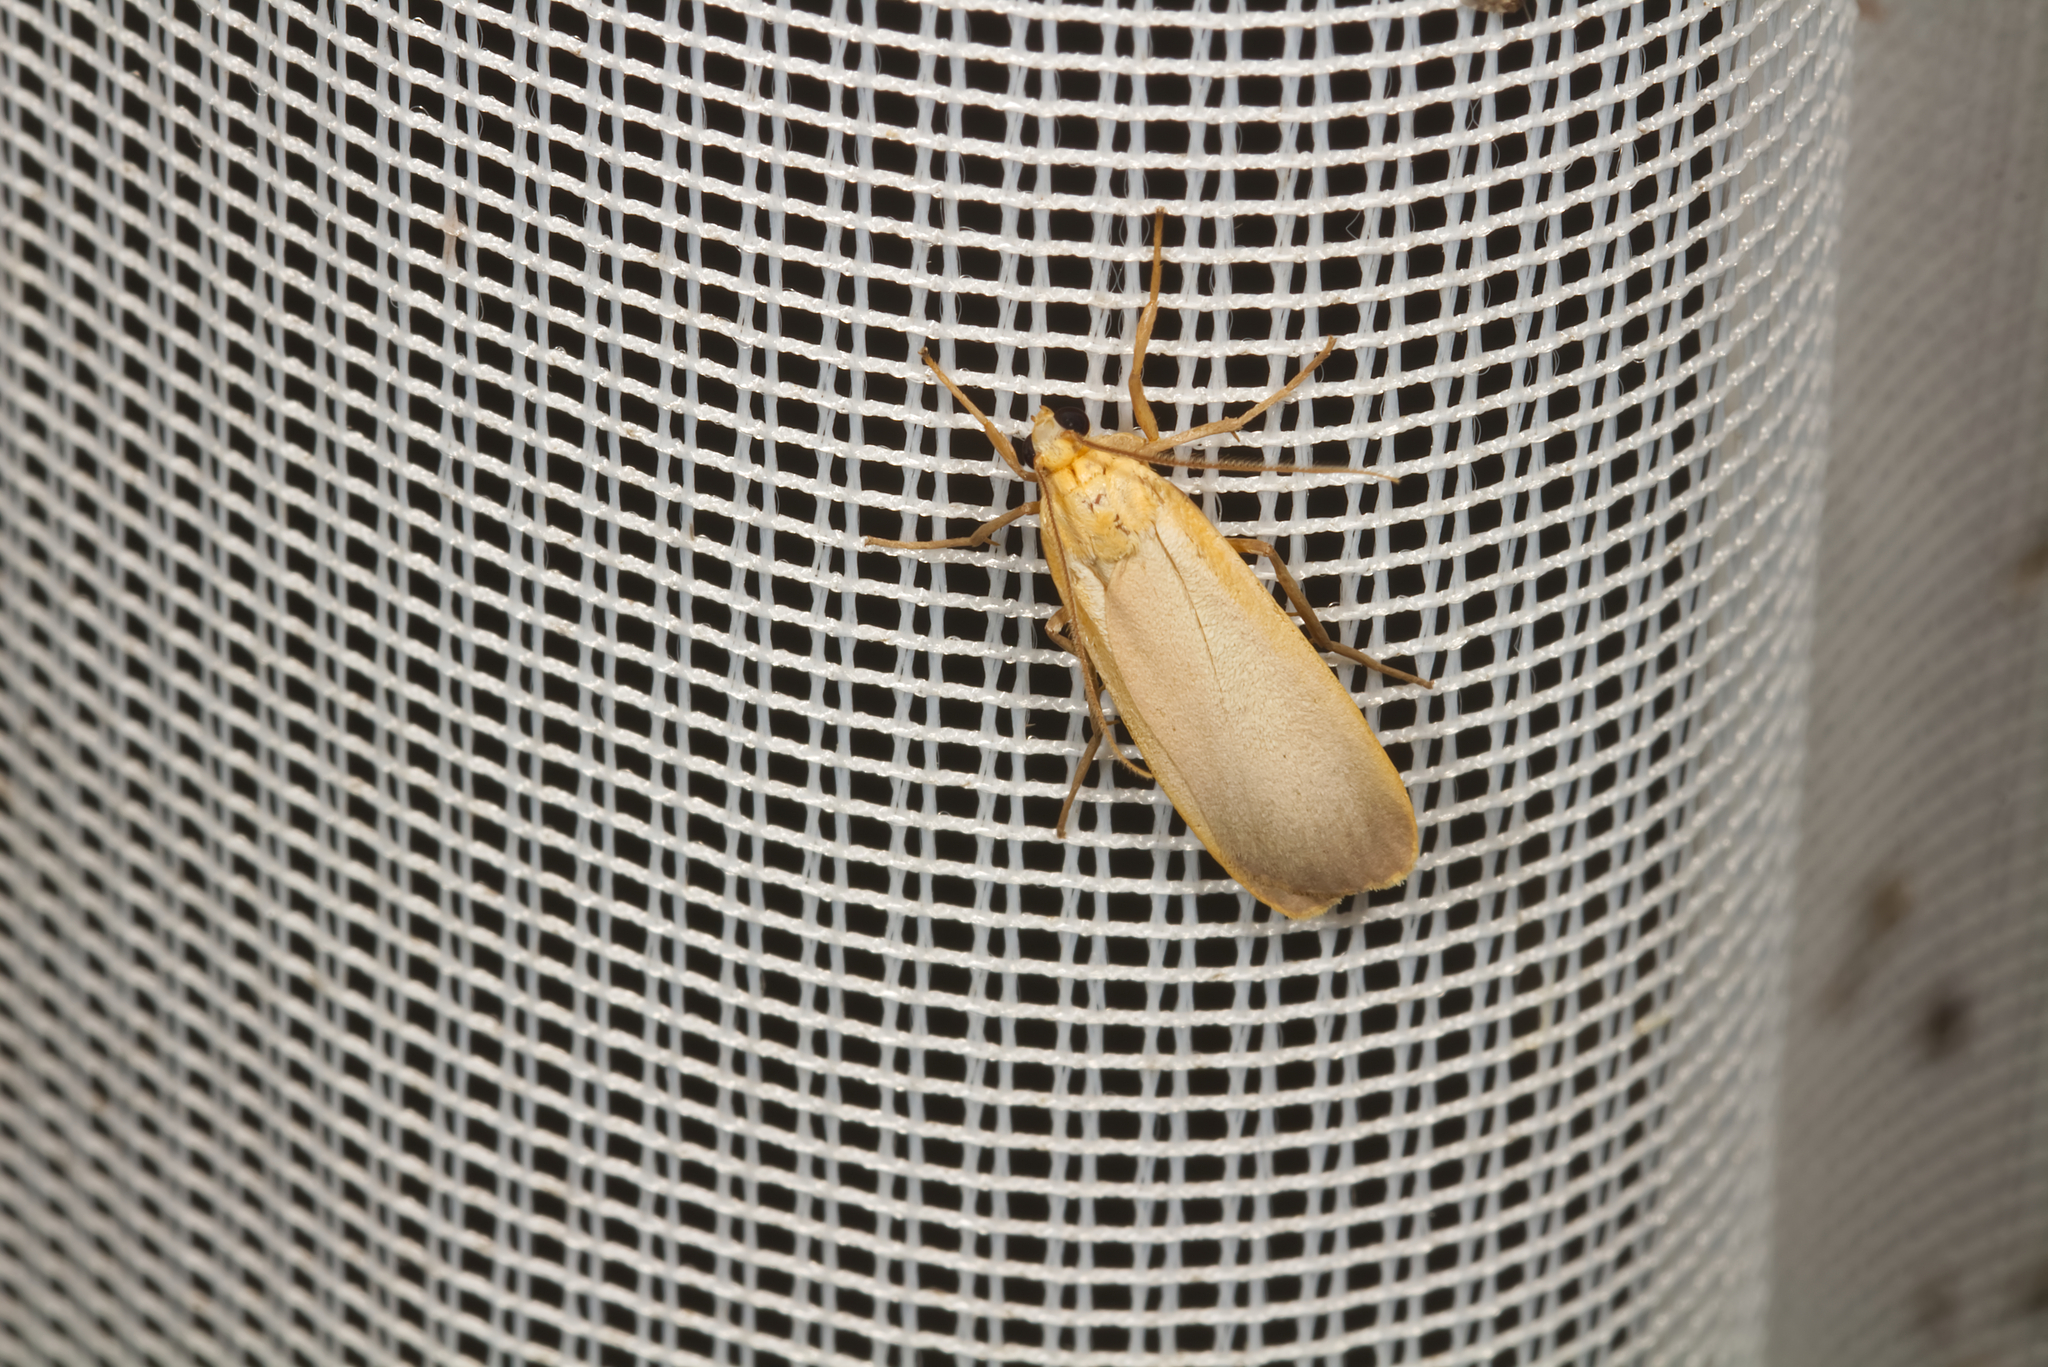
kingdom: Animalia
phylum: Arthropoda
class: Insecta
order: Lepidoptera
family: Erebidae
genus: Katha
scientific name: Katha depressa
